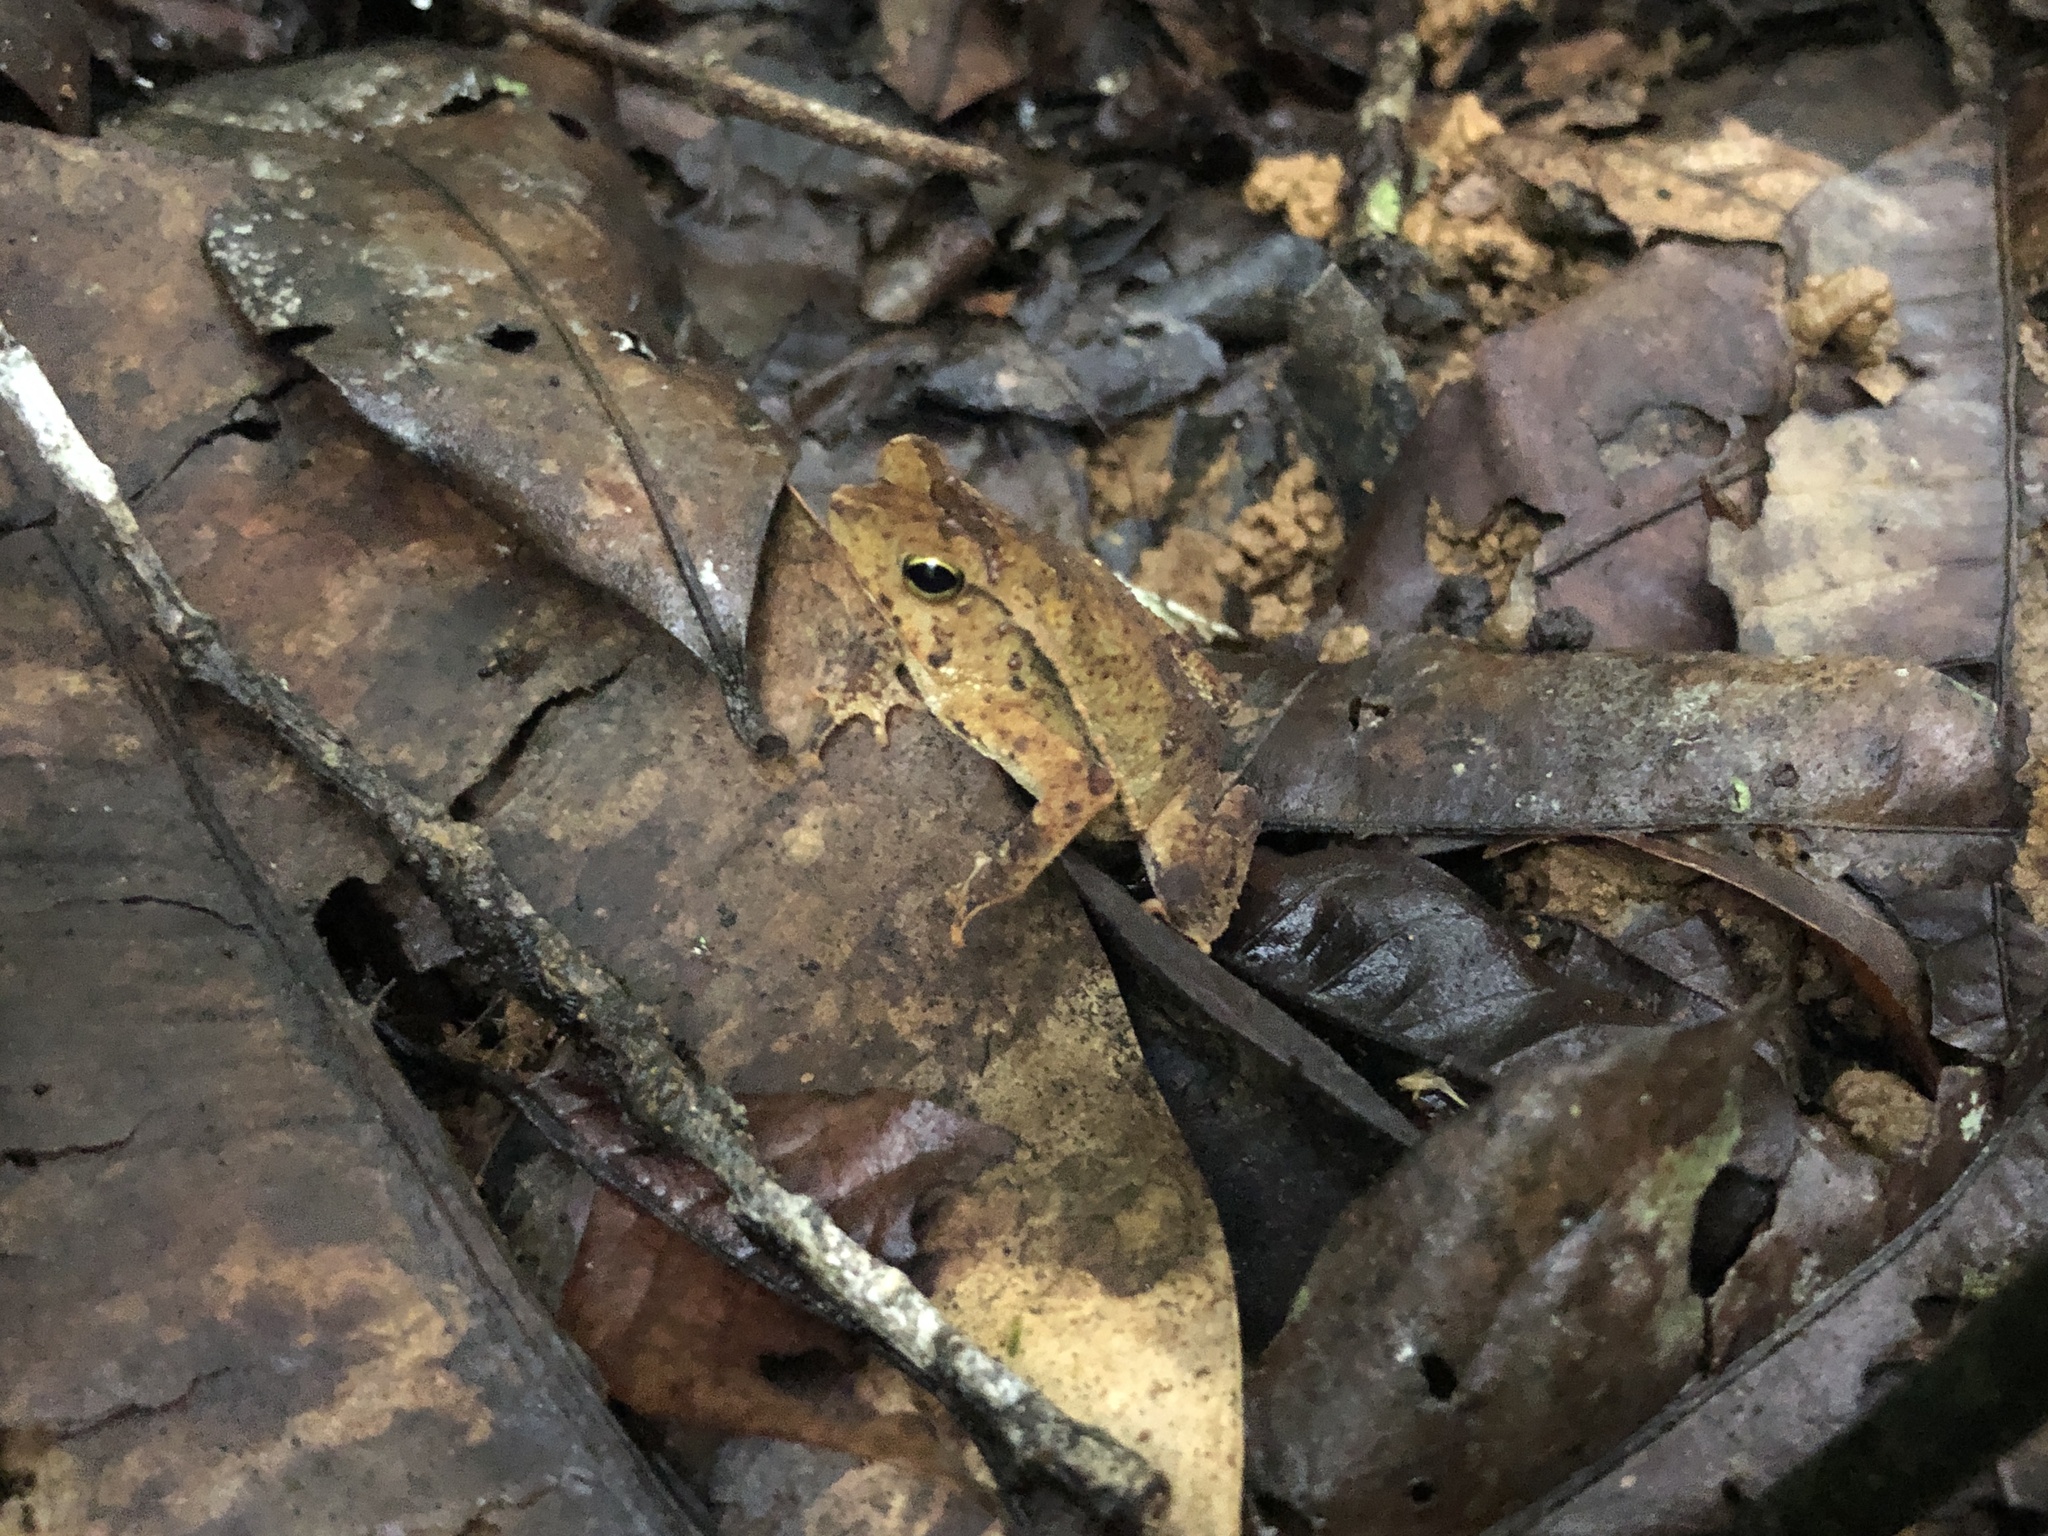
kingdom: Animalia
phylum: Chordata
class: Amphibia
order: Anura
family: Bufonidae
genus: Rhinella
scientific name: Rhinella alata
